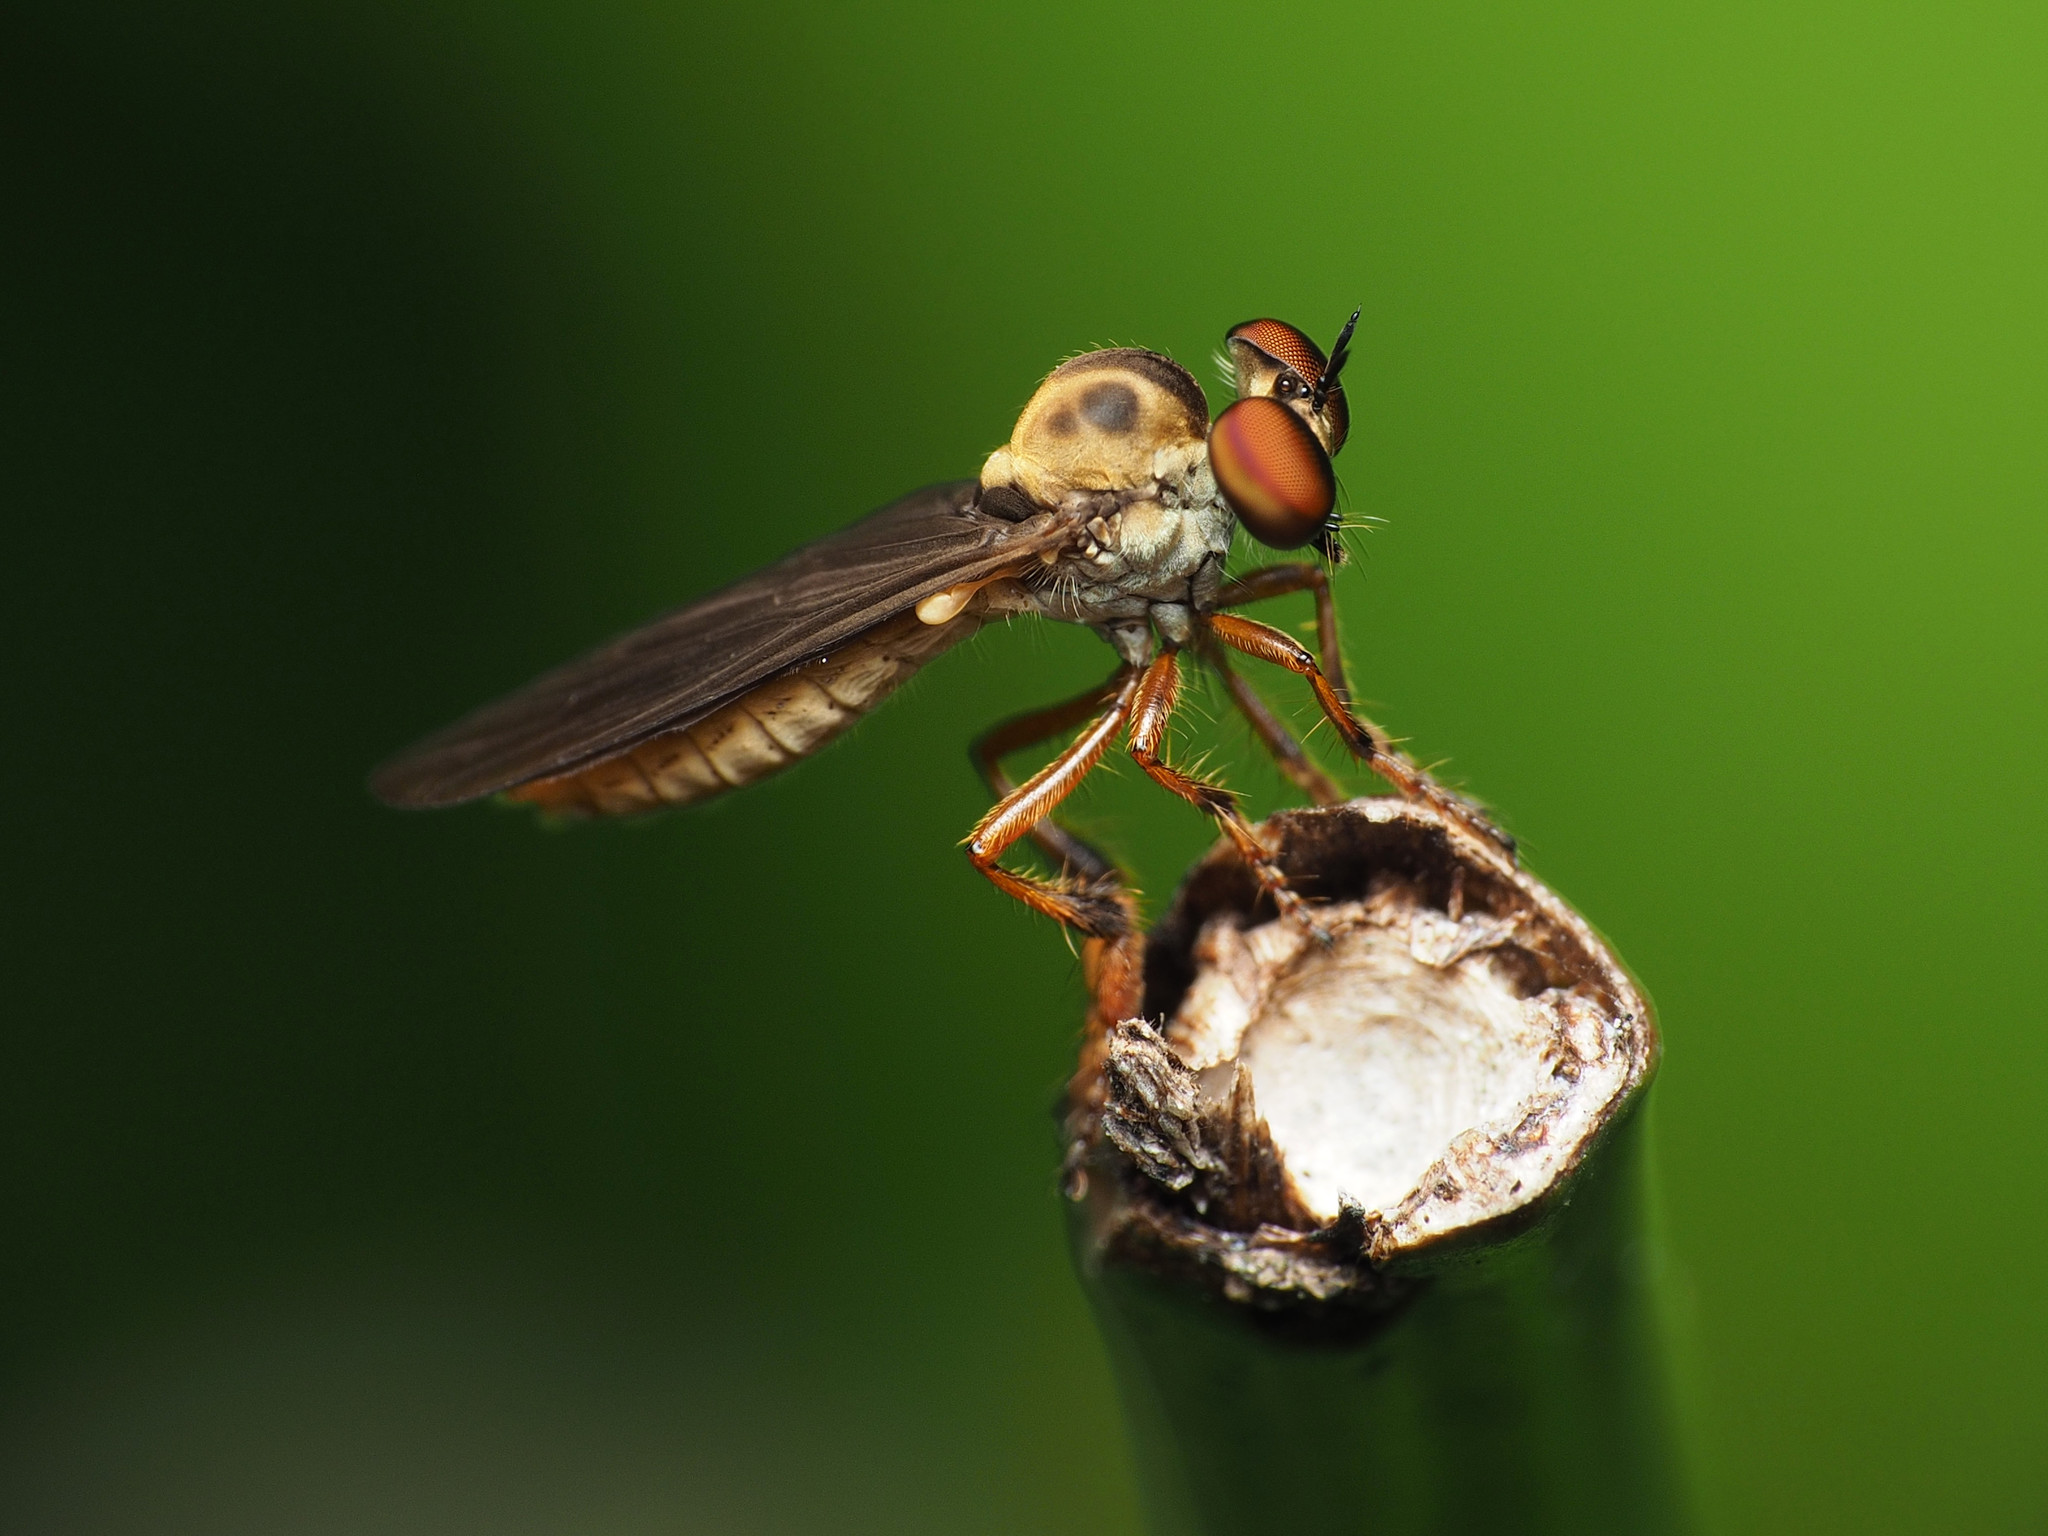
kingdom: Animalia
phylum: Arthropoda
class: Insecta
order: Diptera
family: Asilidae
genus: Holcocephala
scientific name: Holcocephala
